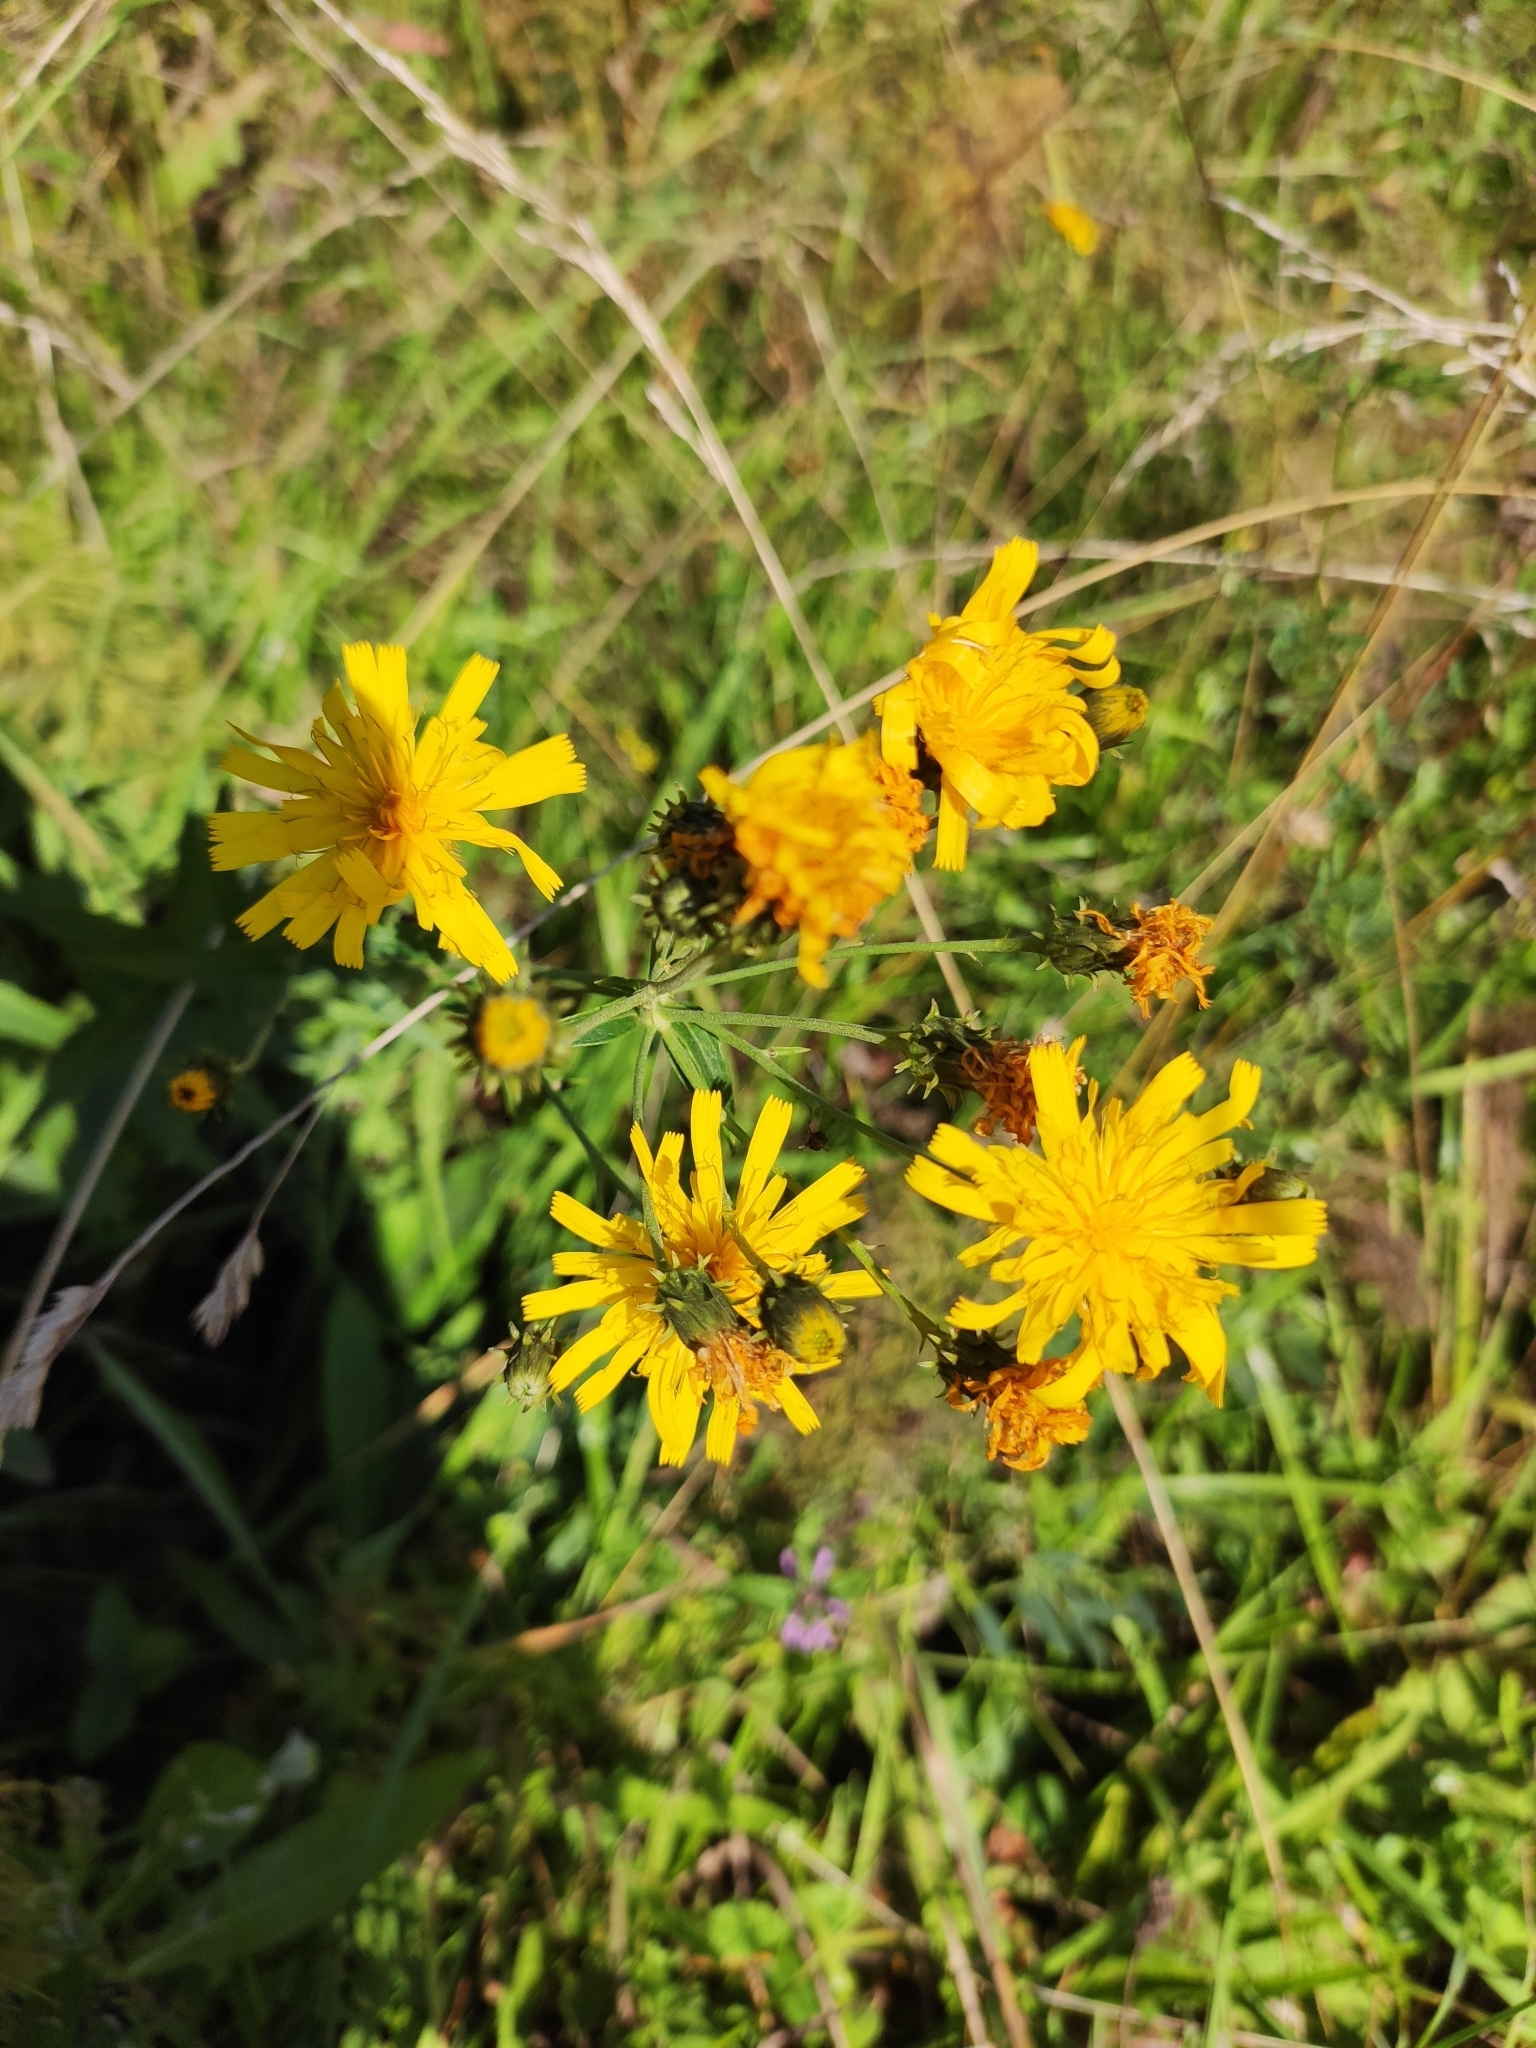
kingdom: Plantae
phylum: Tracheophyta
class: Magnoliopsida
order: Asterales
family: Asteraceae
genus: Hieracium
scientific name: Hieracium umbellatum
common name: Northern hawkweed
